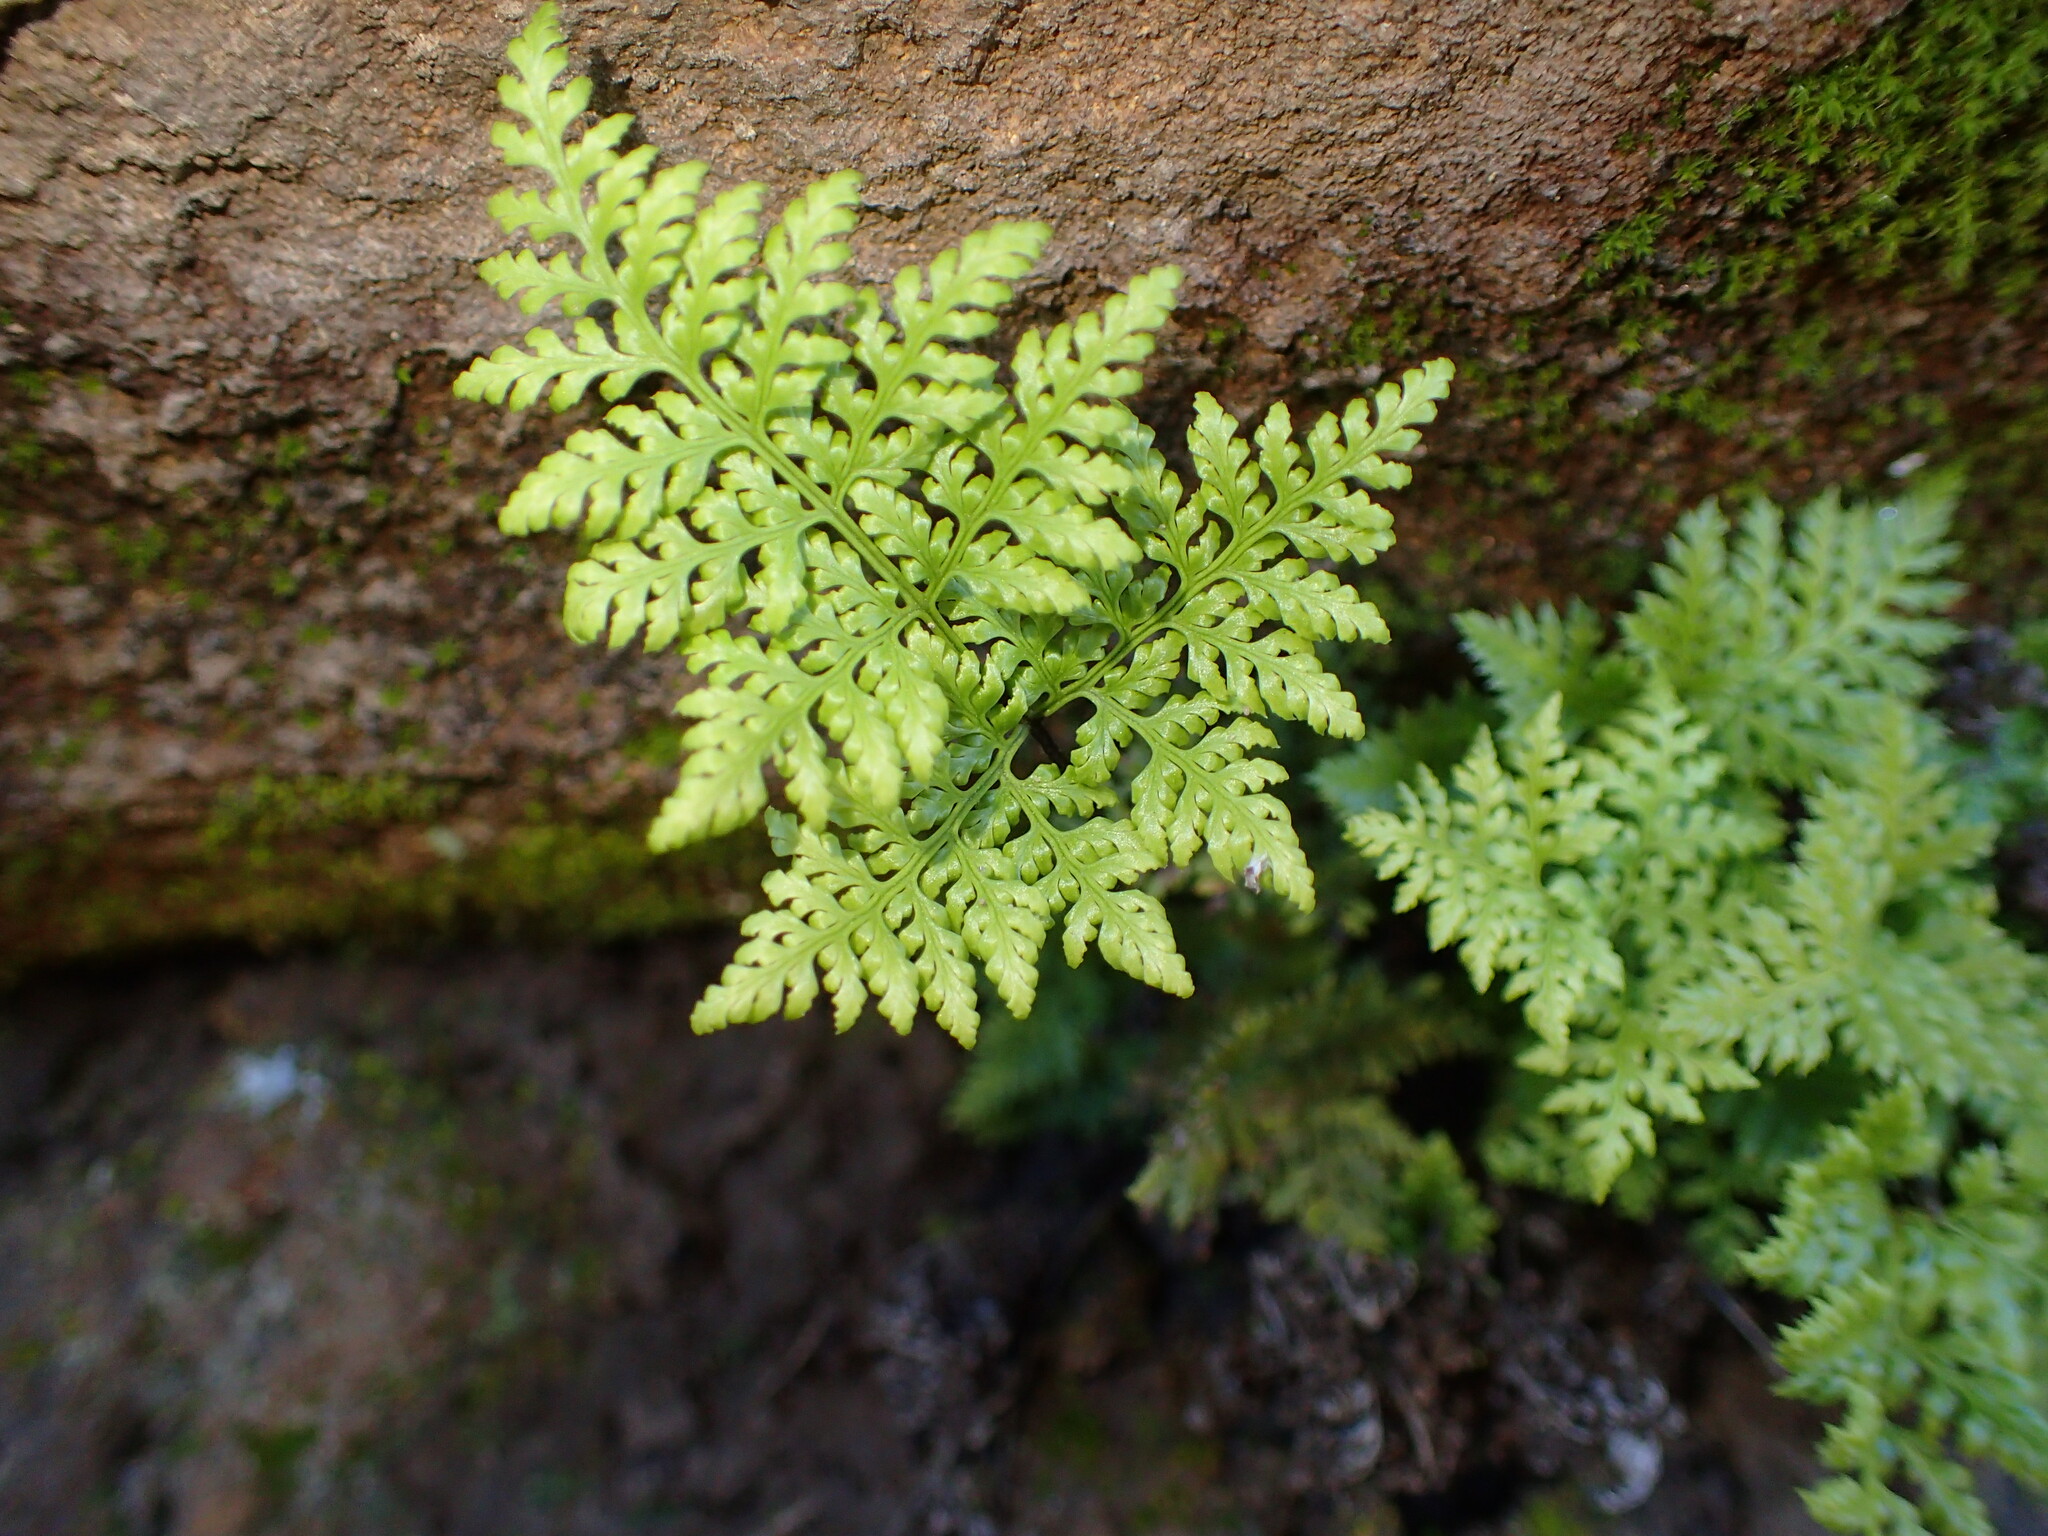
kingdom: Plantae
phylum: Tracheophyta
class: Polypodiopsida
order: Polypodiales
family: Pteridaceae
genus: Aspidotis
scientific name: Aspidotis californica
